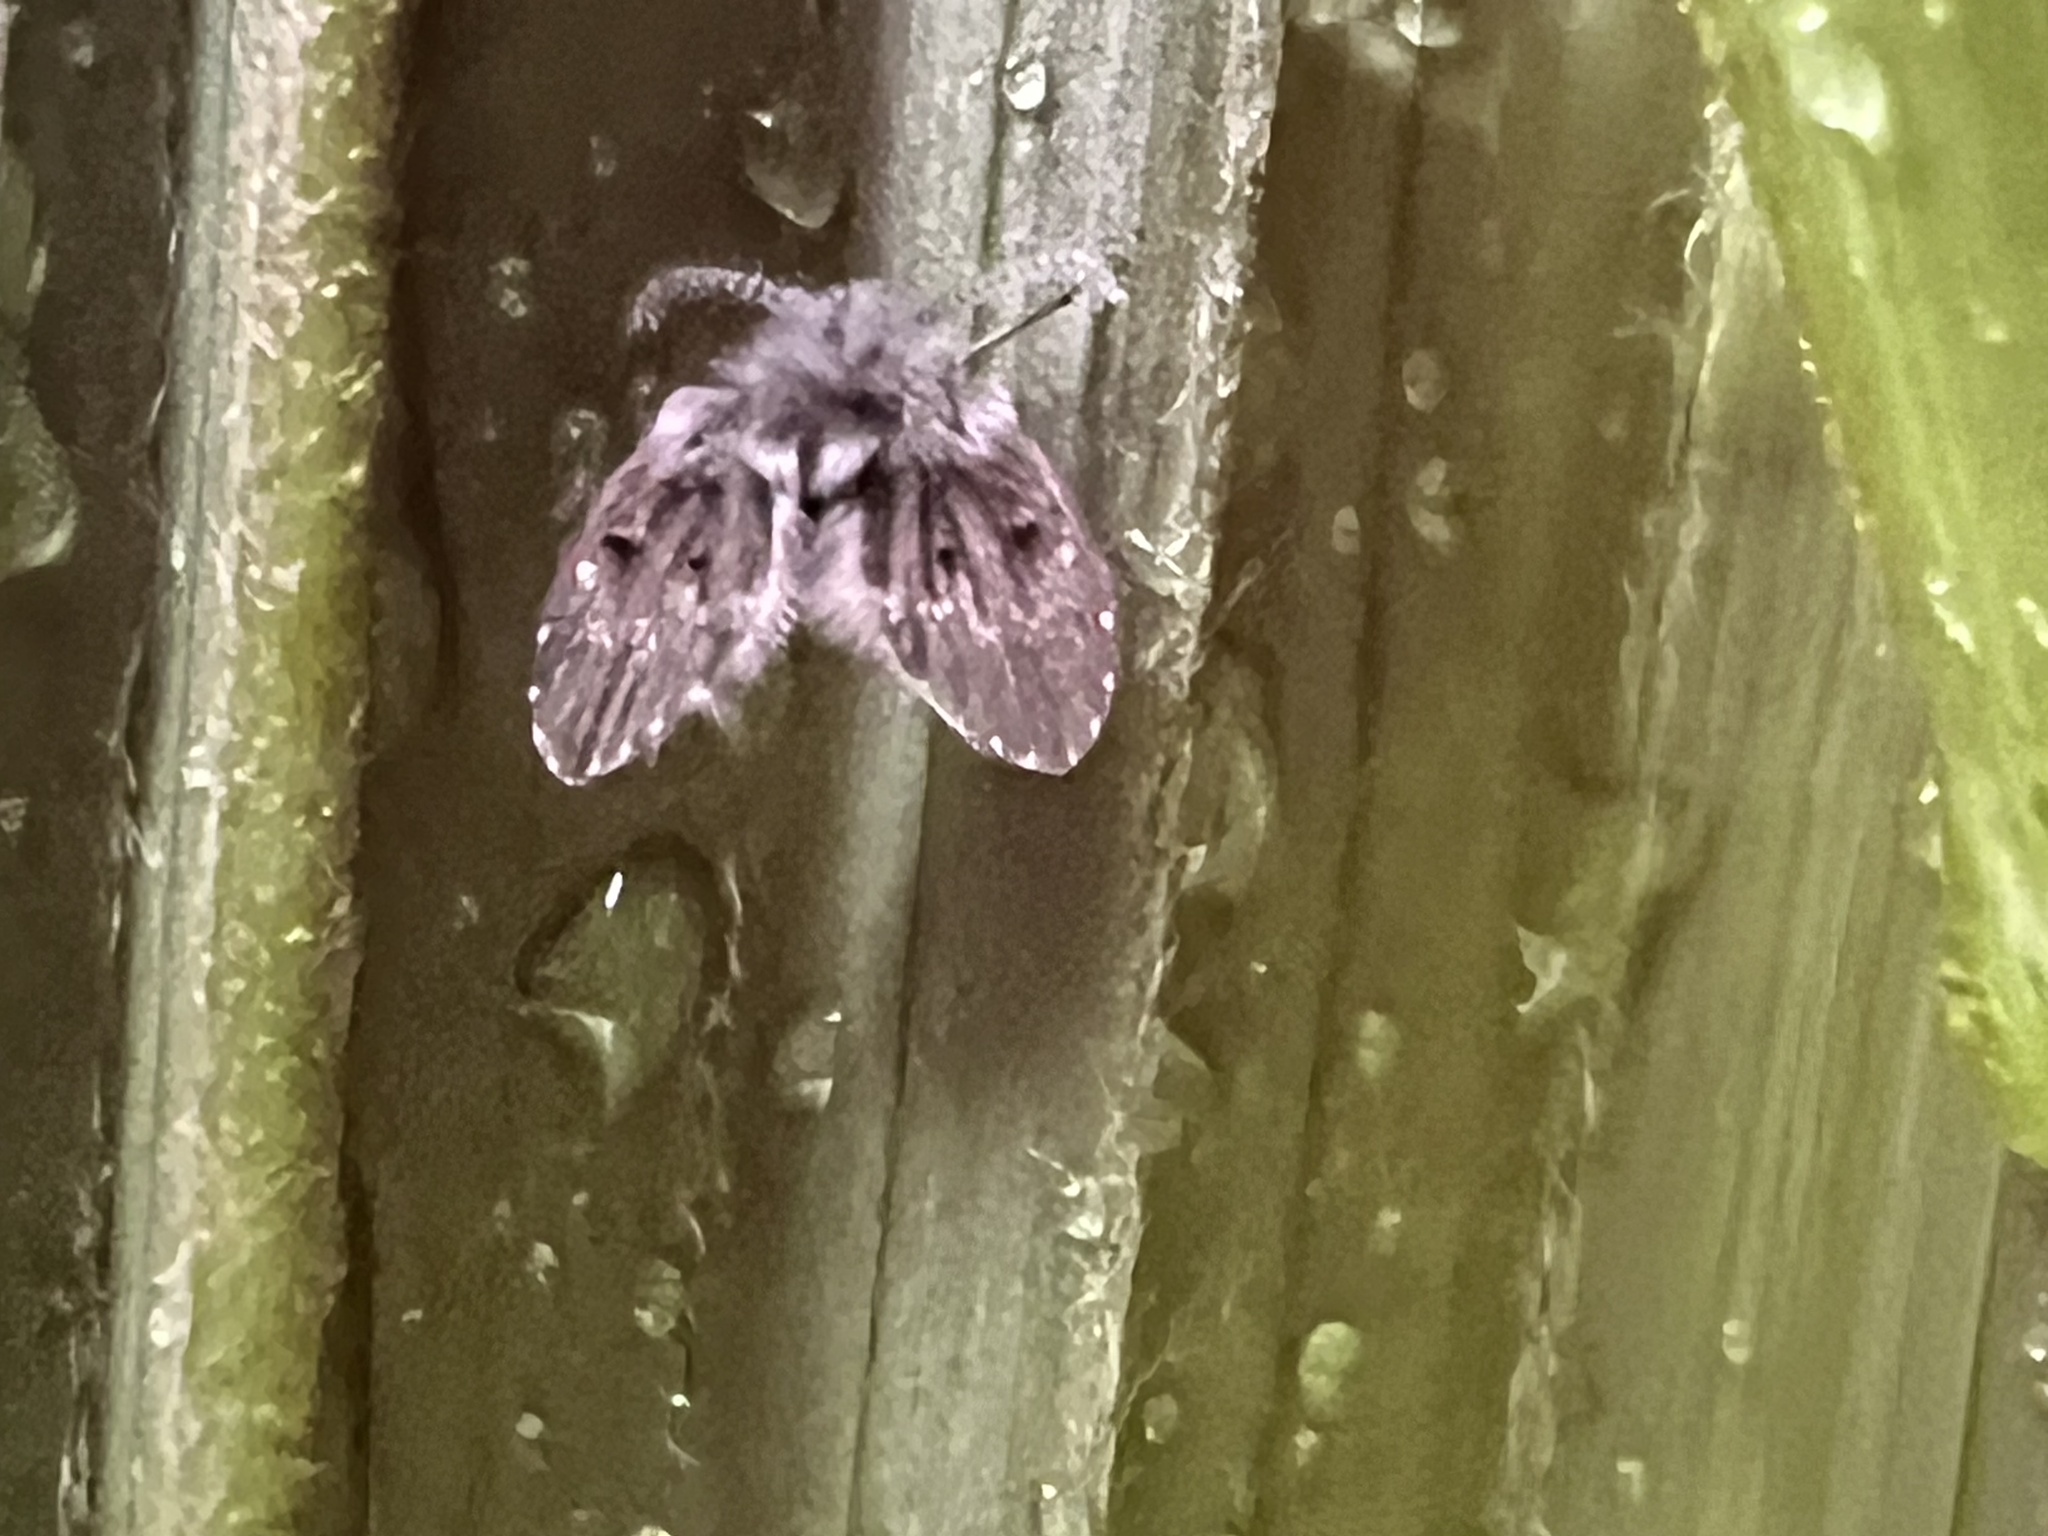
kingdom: Animalia
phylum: Arthropoda
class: Insecta
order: Diptera
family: Psychodidae
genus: Clogmia
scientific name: Clogmia albipunctatus
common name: White-spotted moth fly
